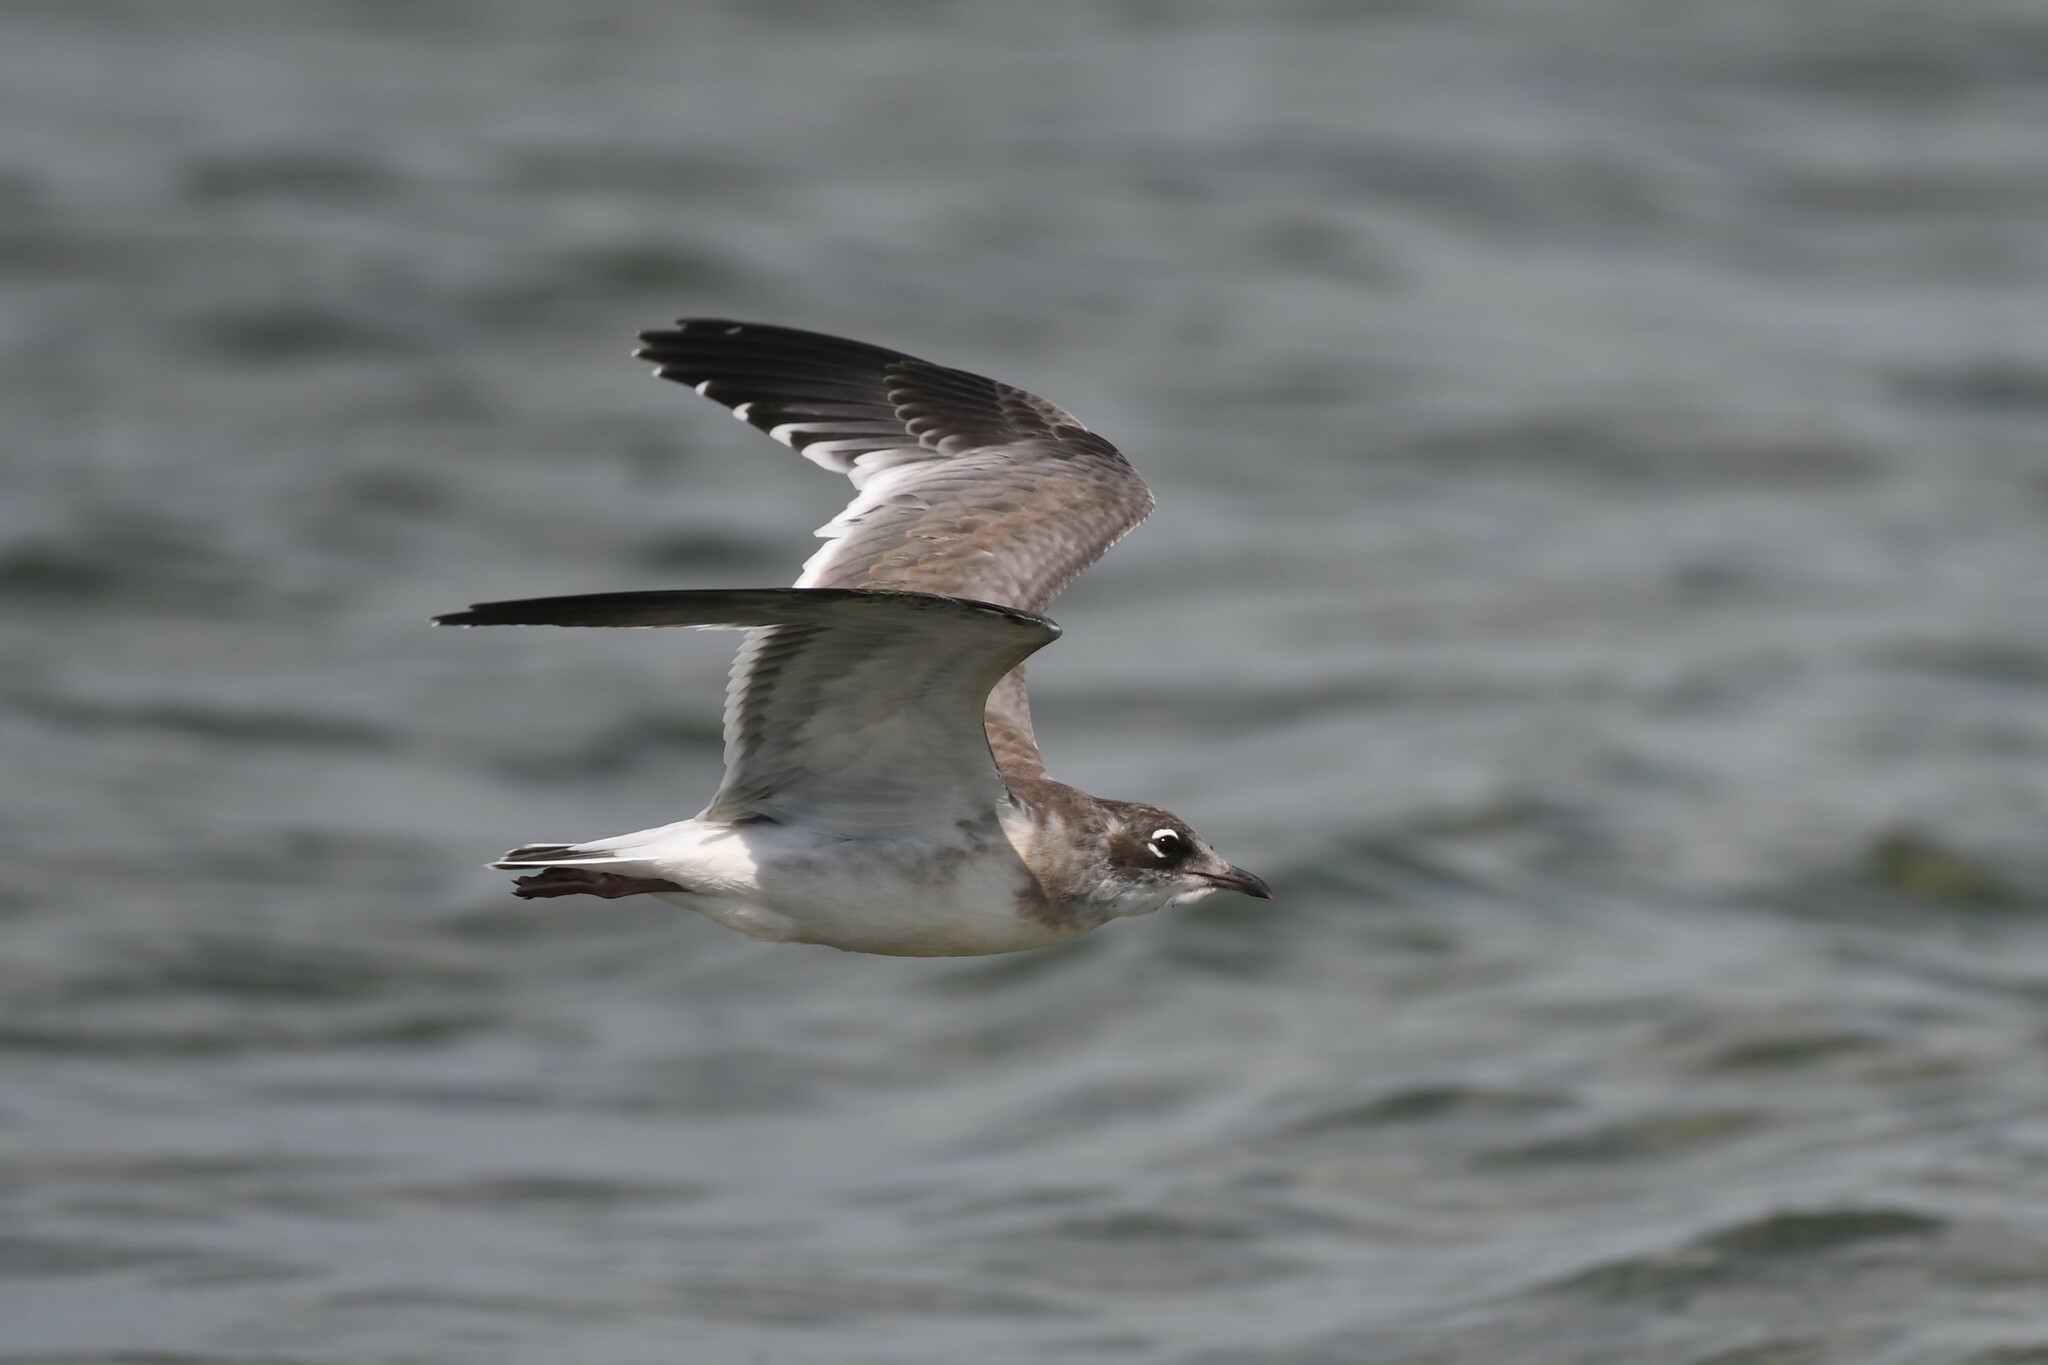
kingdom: Animalia
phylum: Chordata
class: Aves
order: Charadriiformes
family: Laridae
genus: Leucophaeus
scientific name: Leucophaeus pipixcan
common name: Franklin's gull
